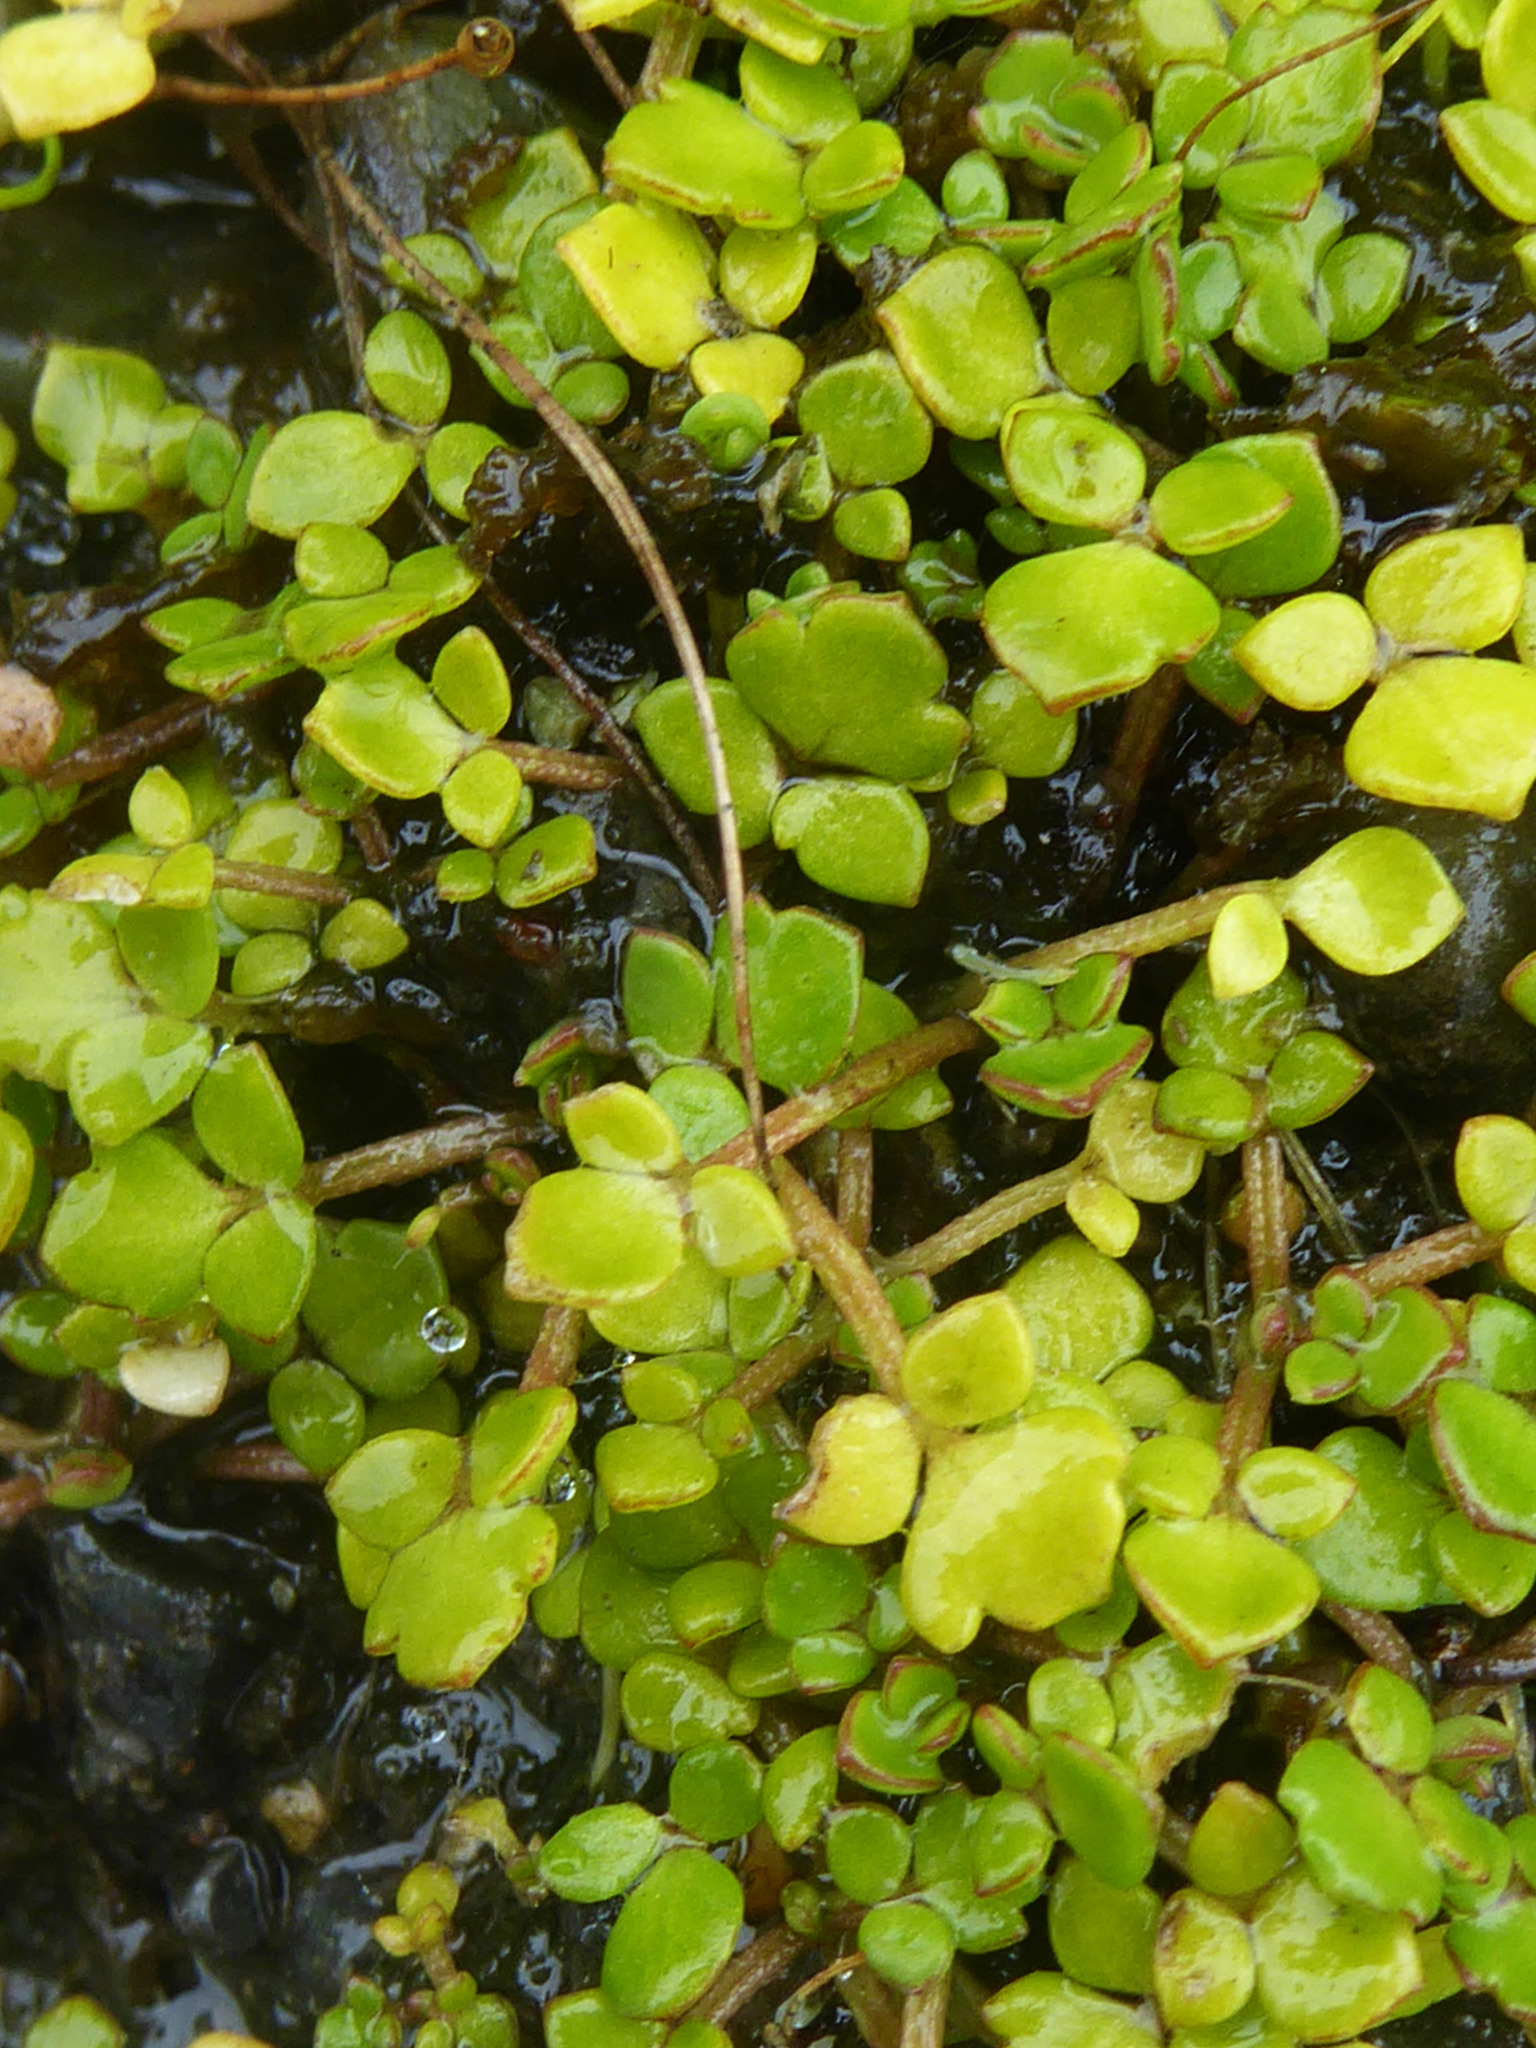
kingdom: Plantae
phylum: Tracheophyta
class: Magnoliopsida
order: Ranunculales
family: Ranunculaceae
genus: Ranunculus
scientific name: Ranunculus acaulis
